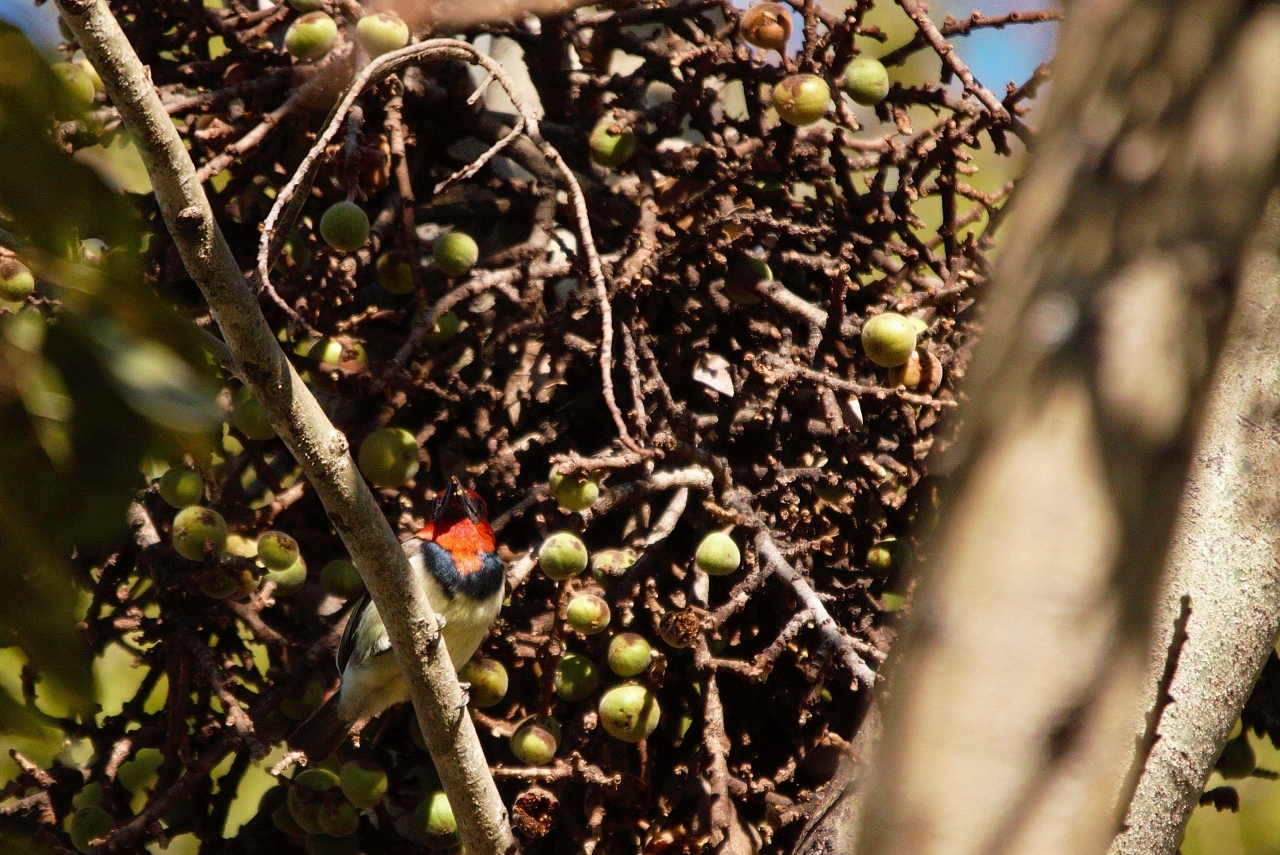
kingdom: Animalia
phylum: Chordata
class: Aves
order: Piciformes
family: Lybiidae
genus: Lybius
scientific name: Lybius torquatus
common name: Black-collared barbet
